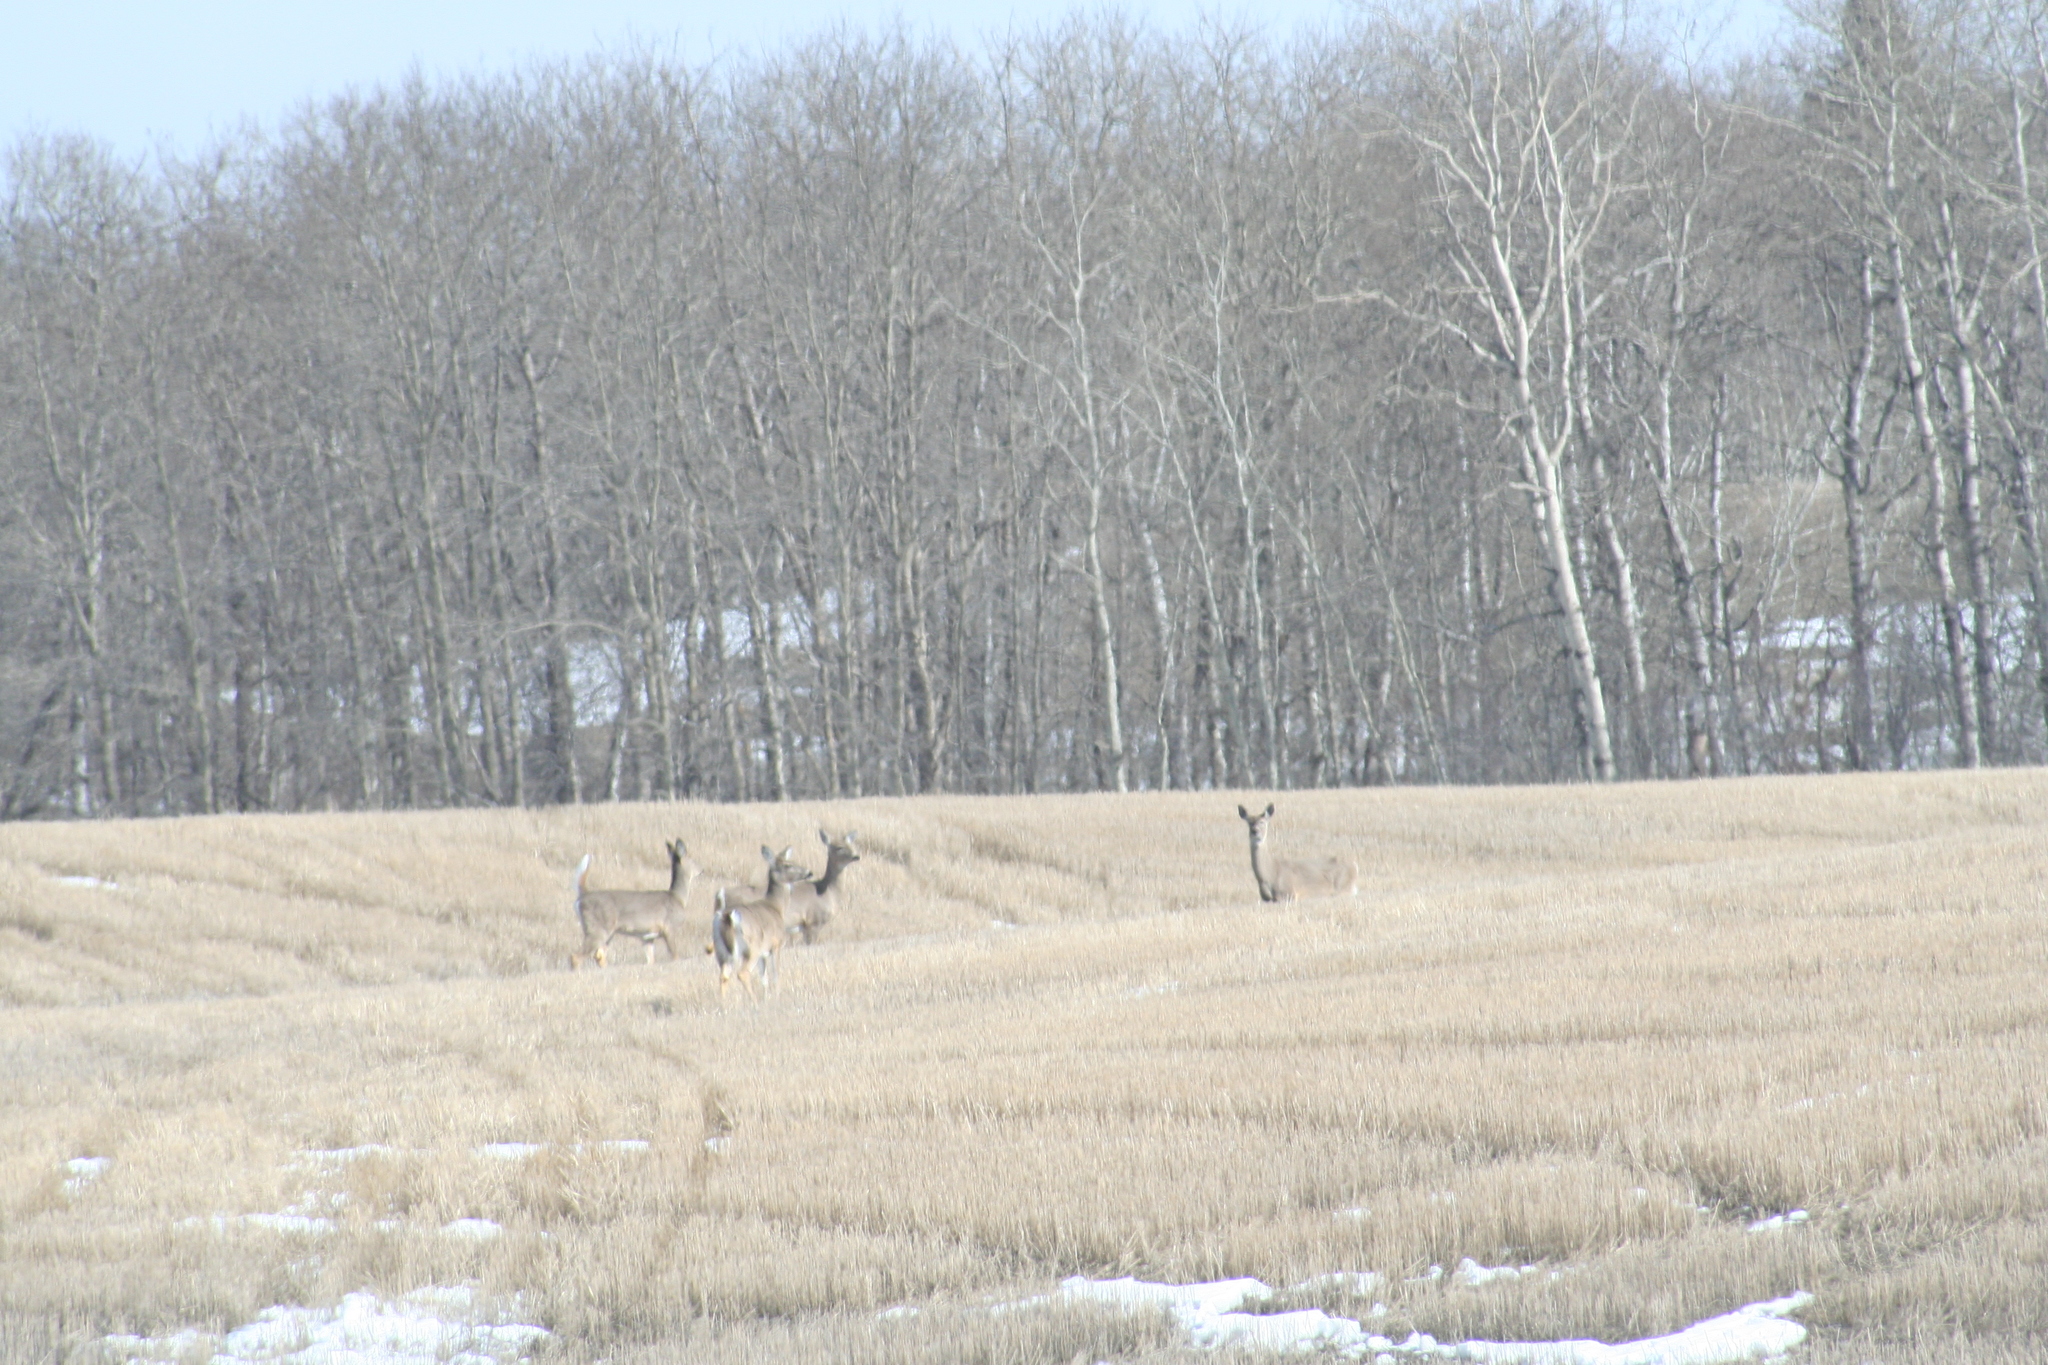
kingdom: Animalia
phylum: Chordata
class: Mammalia
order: Artiodactyla
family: Cervidae
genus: Odocoileus
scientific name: Odocoileus virginianus
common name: White-tailed deer
